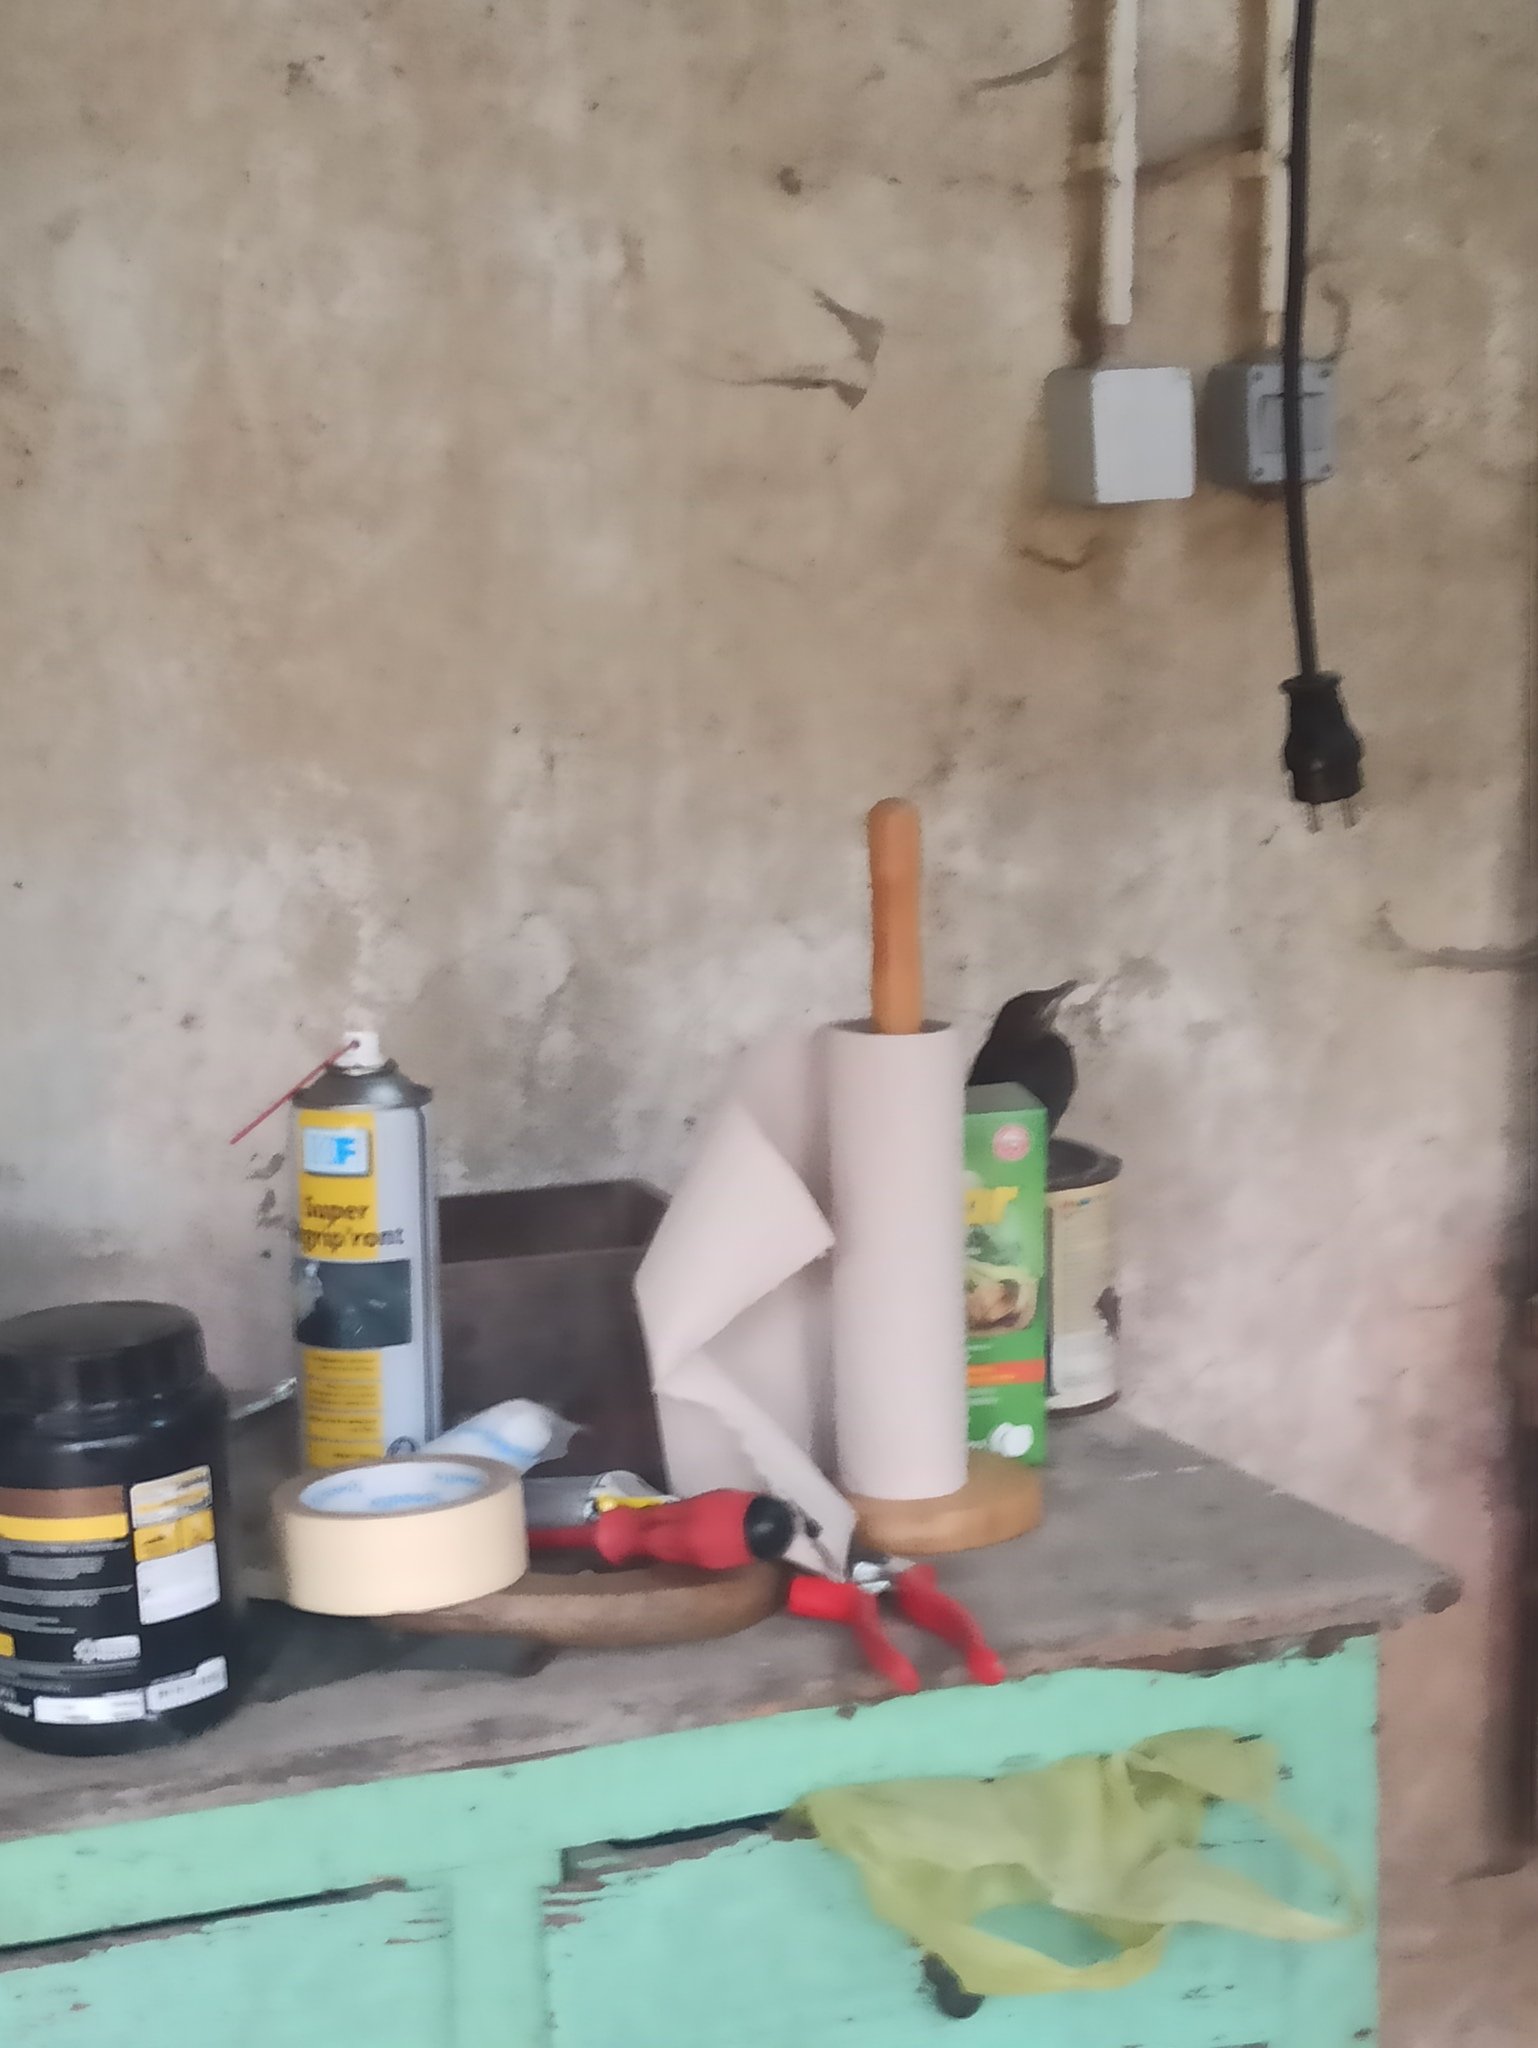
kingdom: Animalia
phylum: Chordata
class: Aves
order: Passeriformes
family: Turdidae
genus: Turdus
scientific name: Turdus merula
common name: Common blackbird
